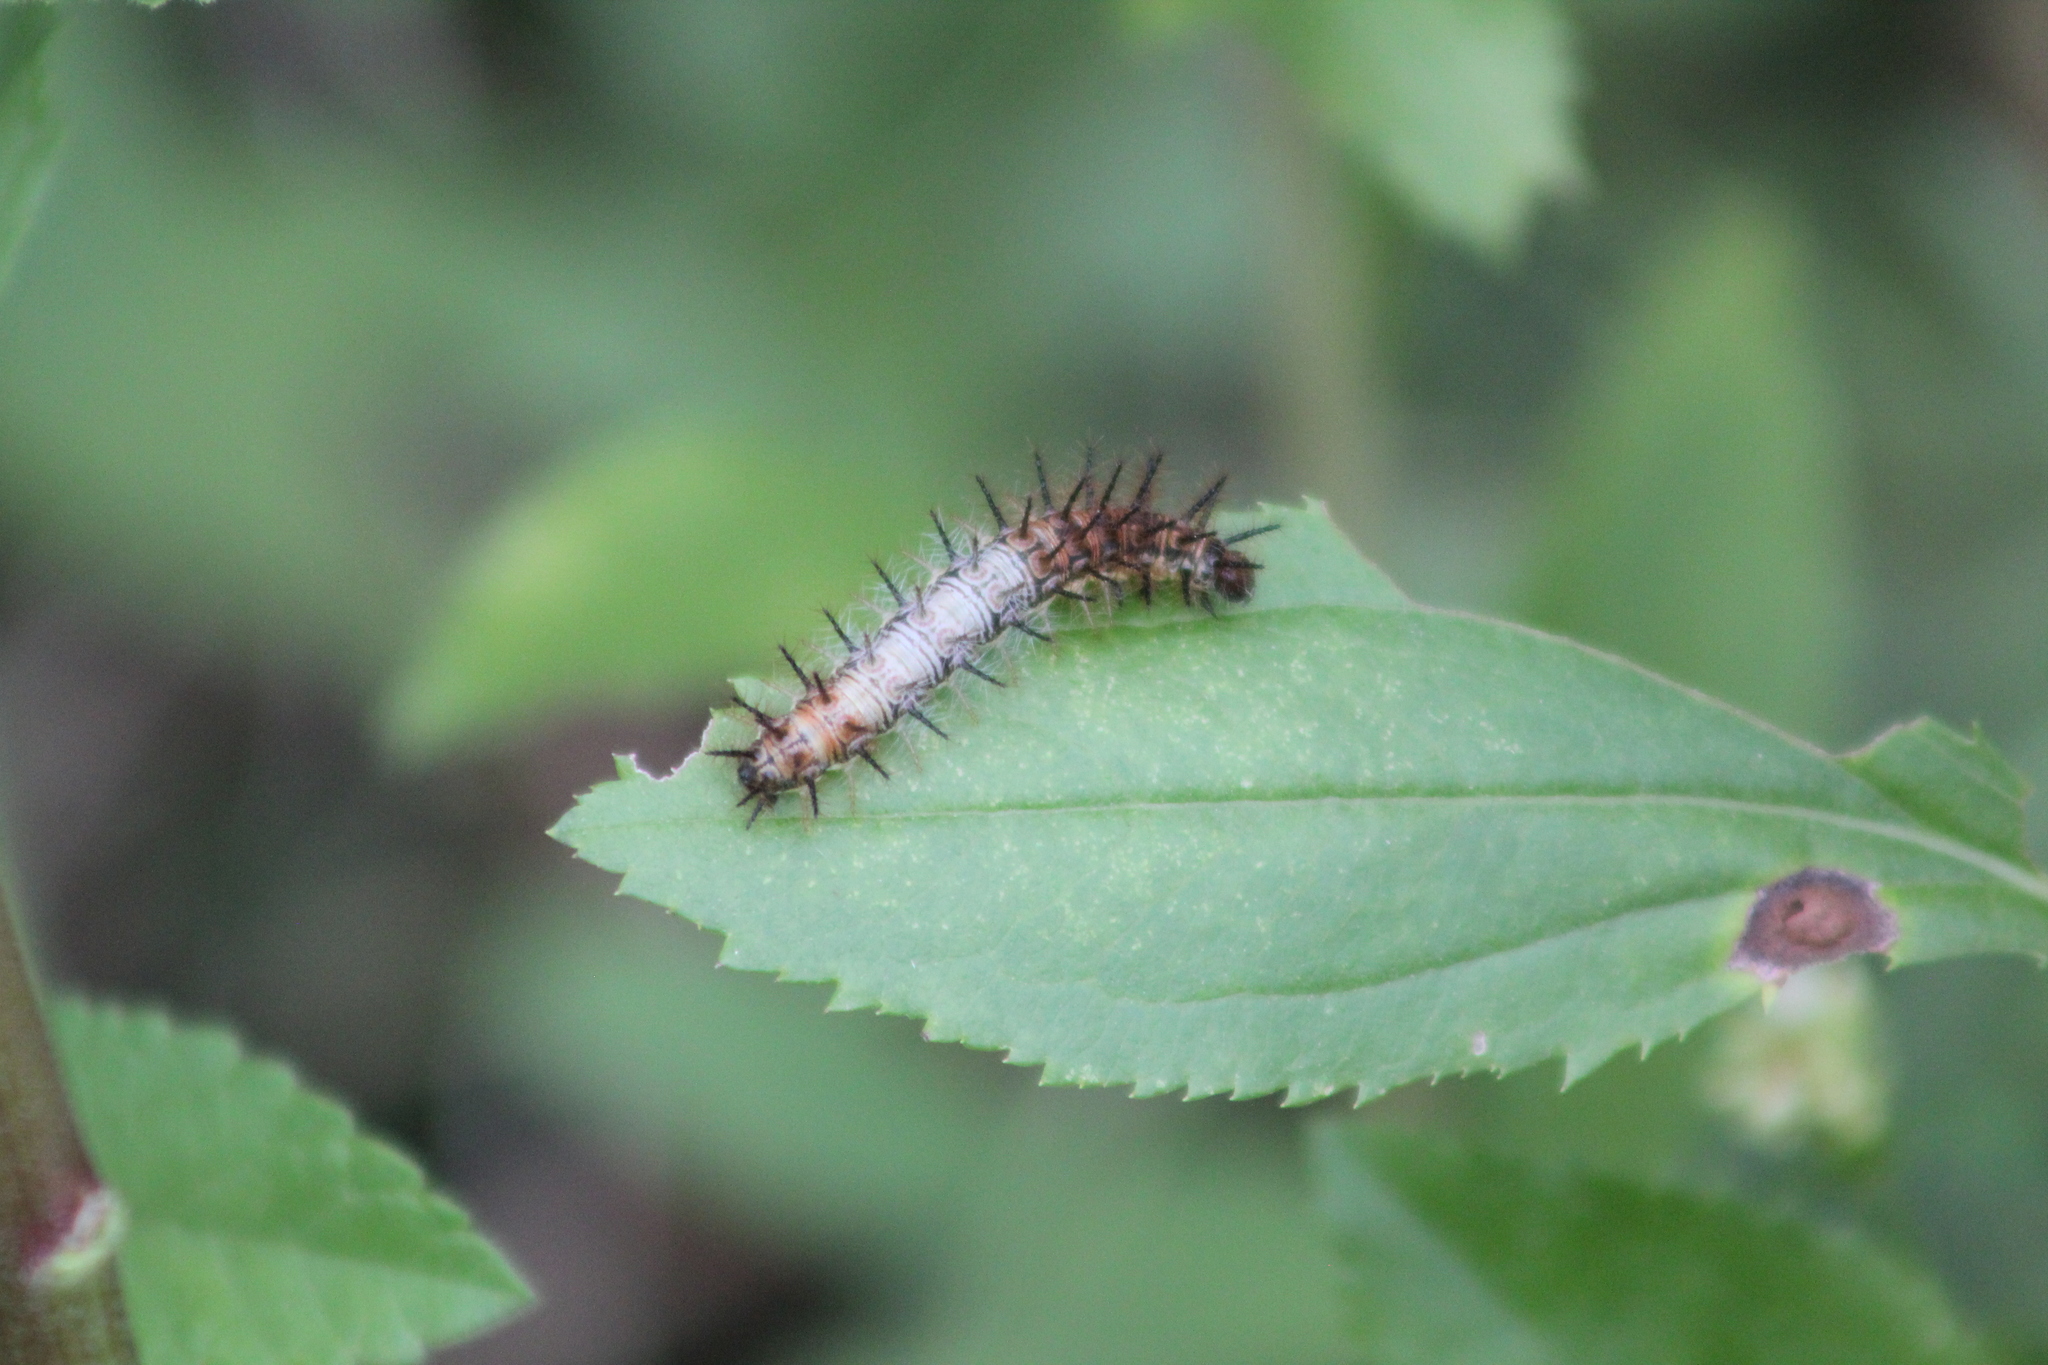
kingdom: Animalia
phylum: Arthropoda
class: Insecta
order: Lepidoptera
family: Nymphalidae
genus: Actinote
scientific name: Actinote
